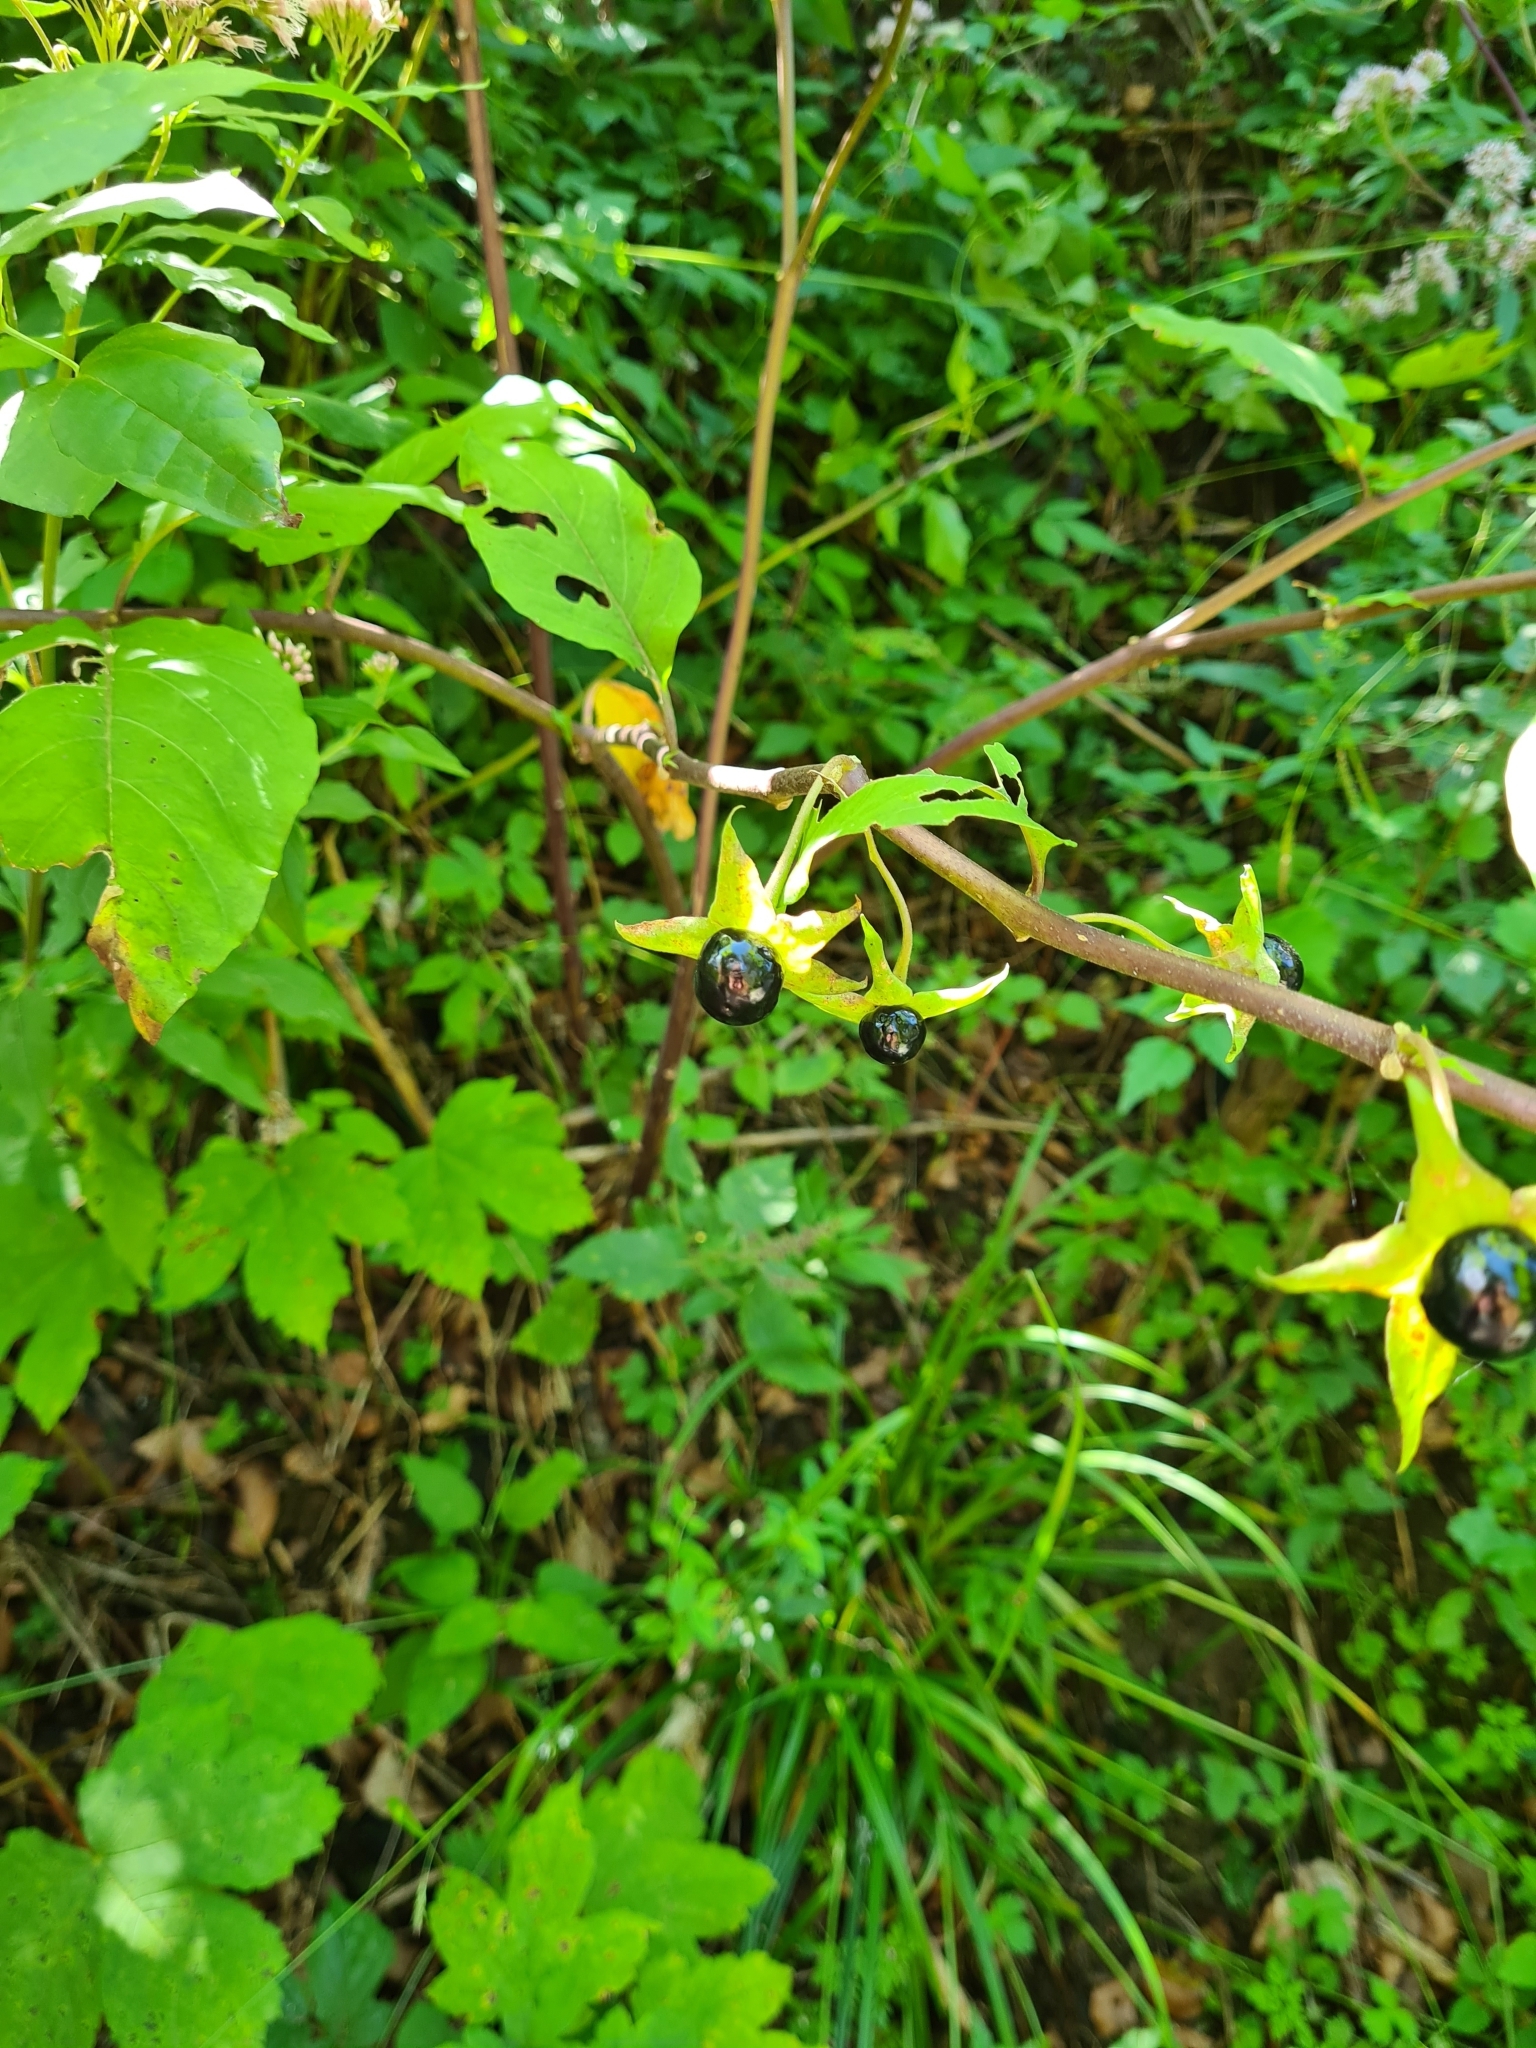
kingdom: Plantae
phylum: Tracheophyta
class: Magnoliopsida
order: Solanales
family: Solanaceae
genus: Atropa
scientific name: Atropa belladonna
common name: Deadly nightshade
